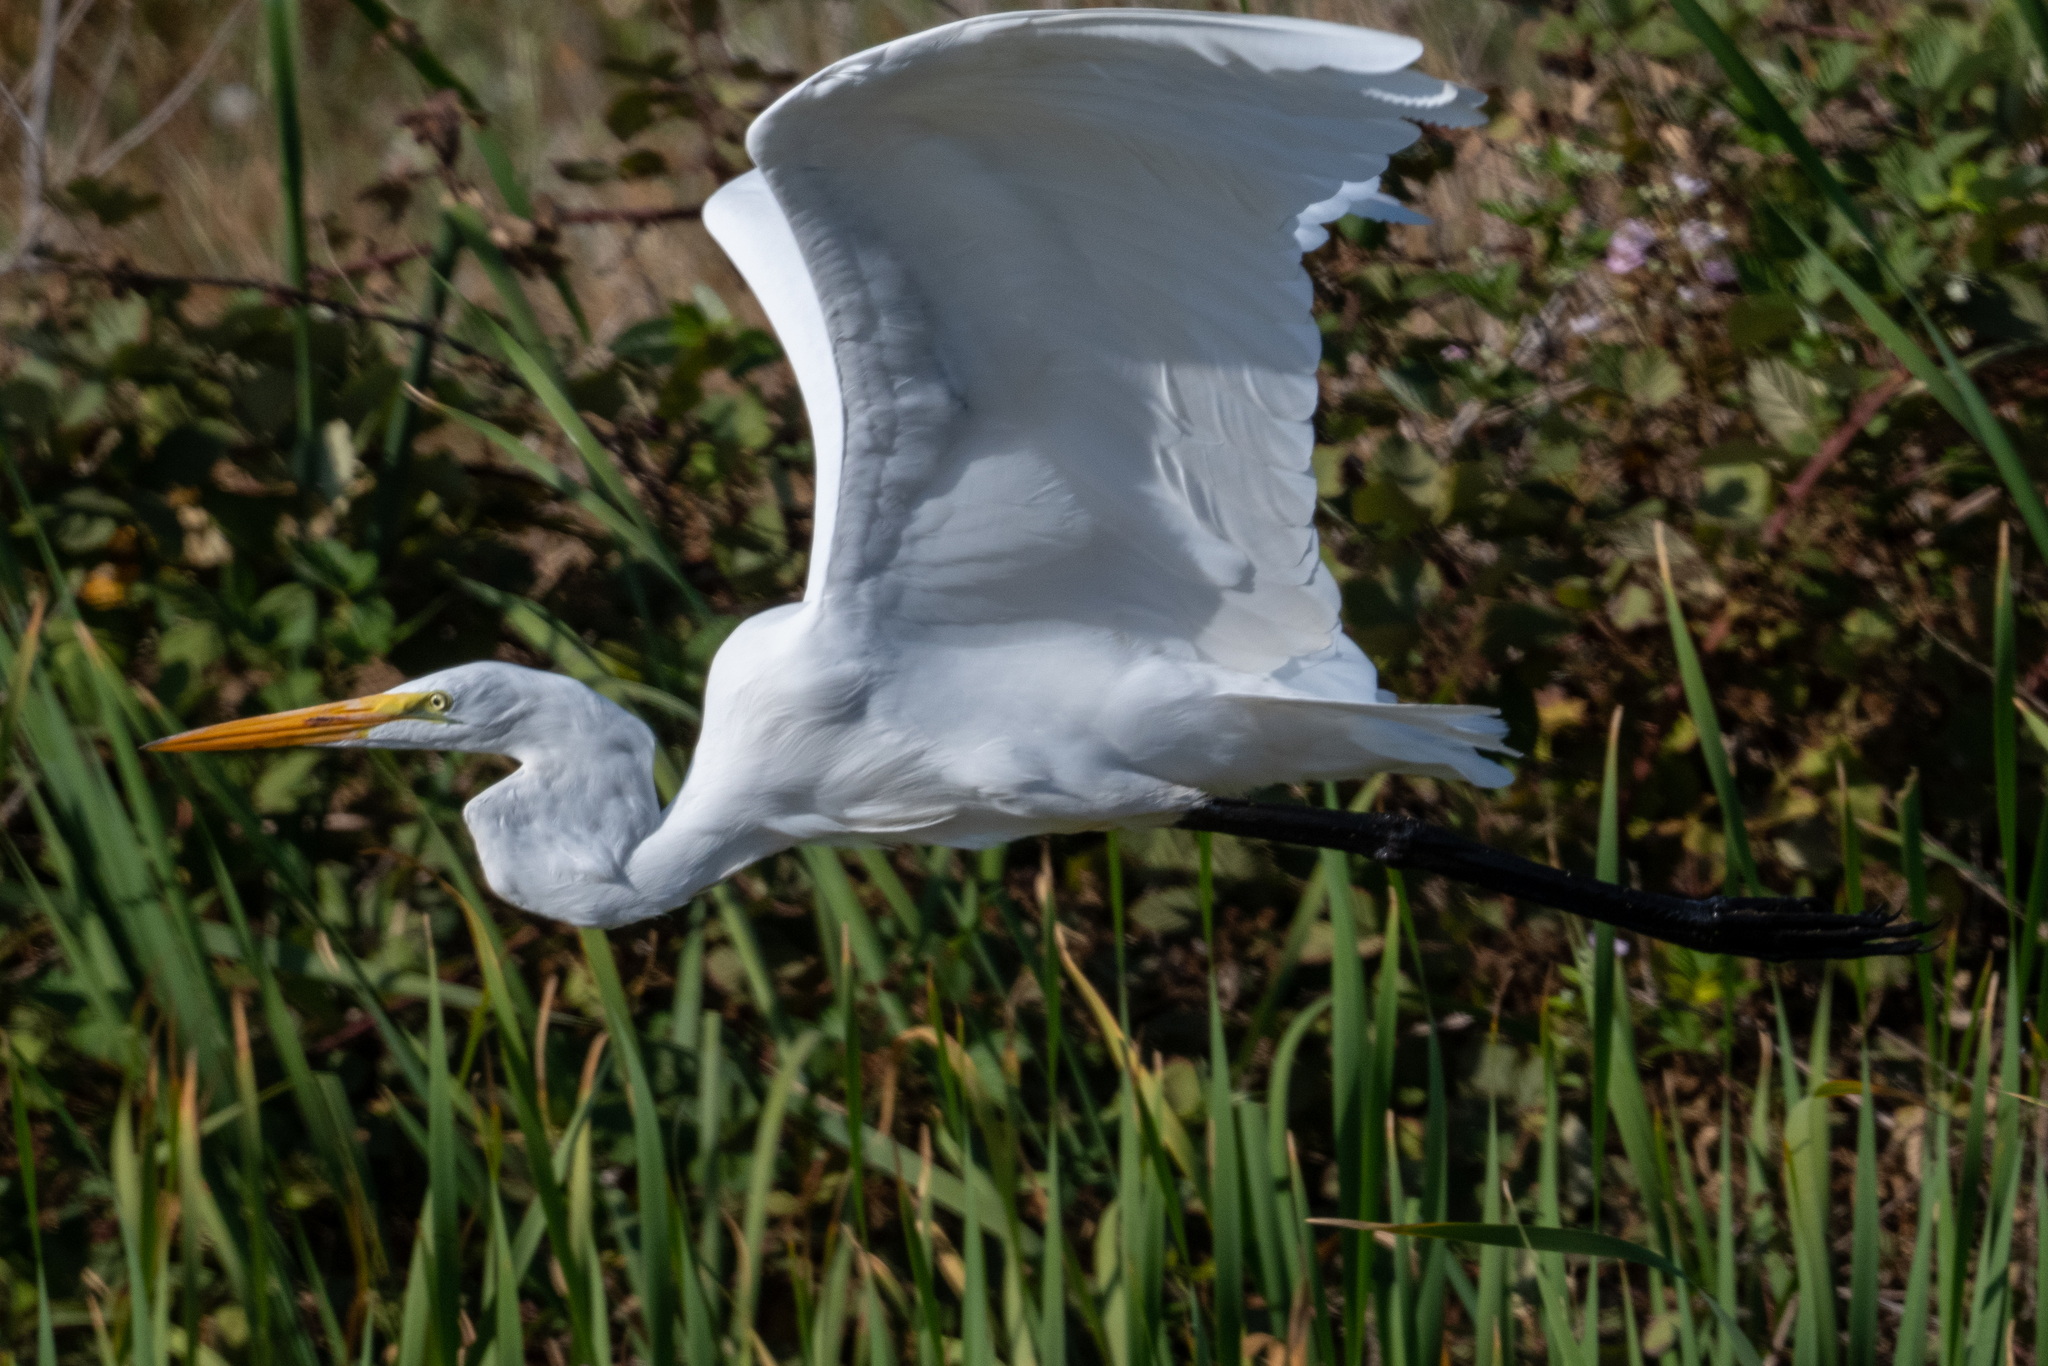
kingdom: Animalia
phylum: Chordata
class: Aves
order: Pelecaniformes
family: Ardeidae
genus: Ardea
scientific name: Ardea alba
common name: Great egret
